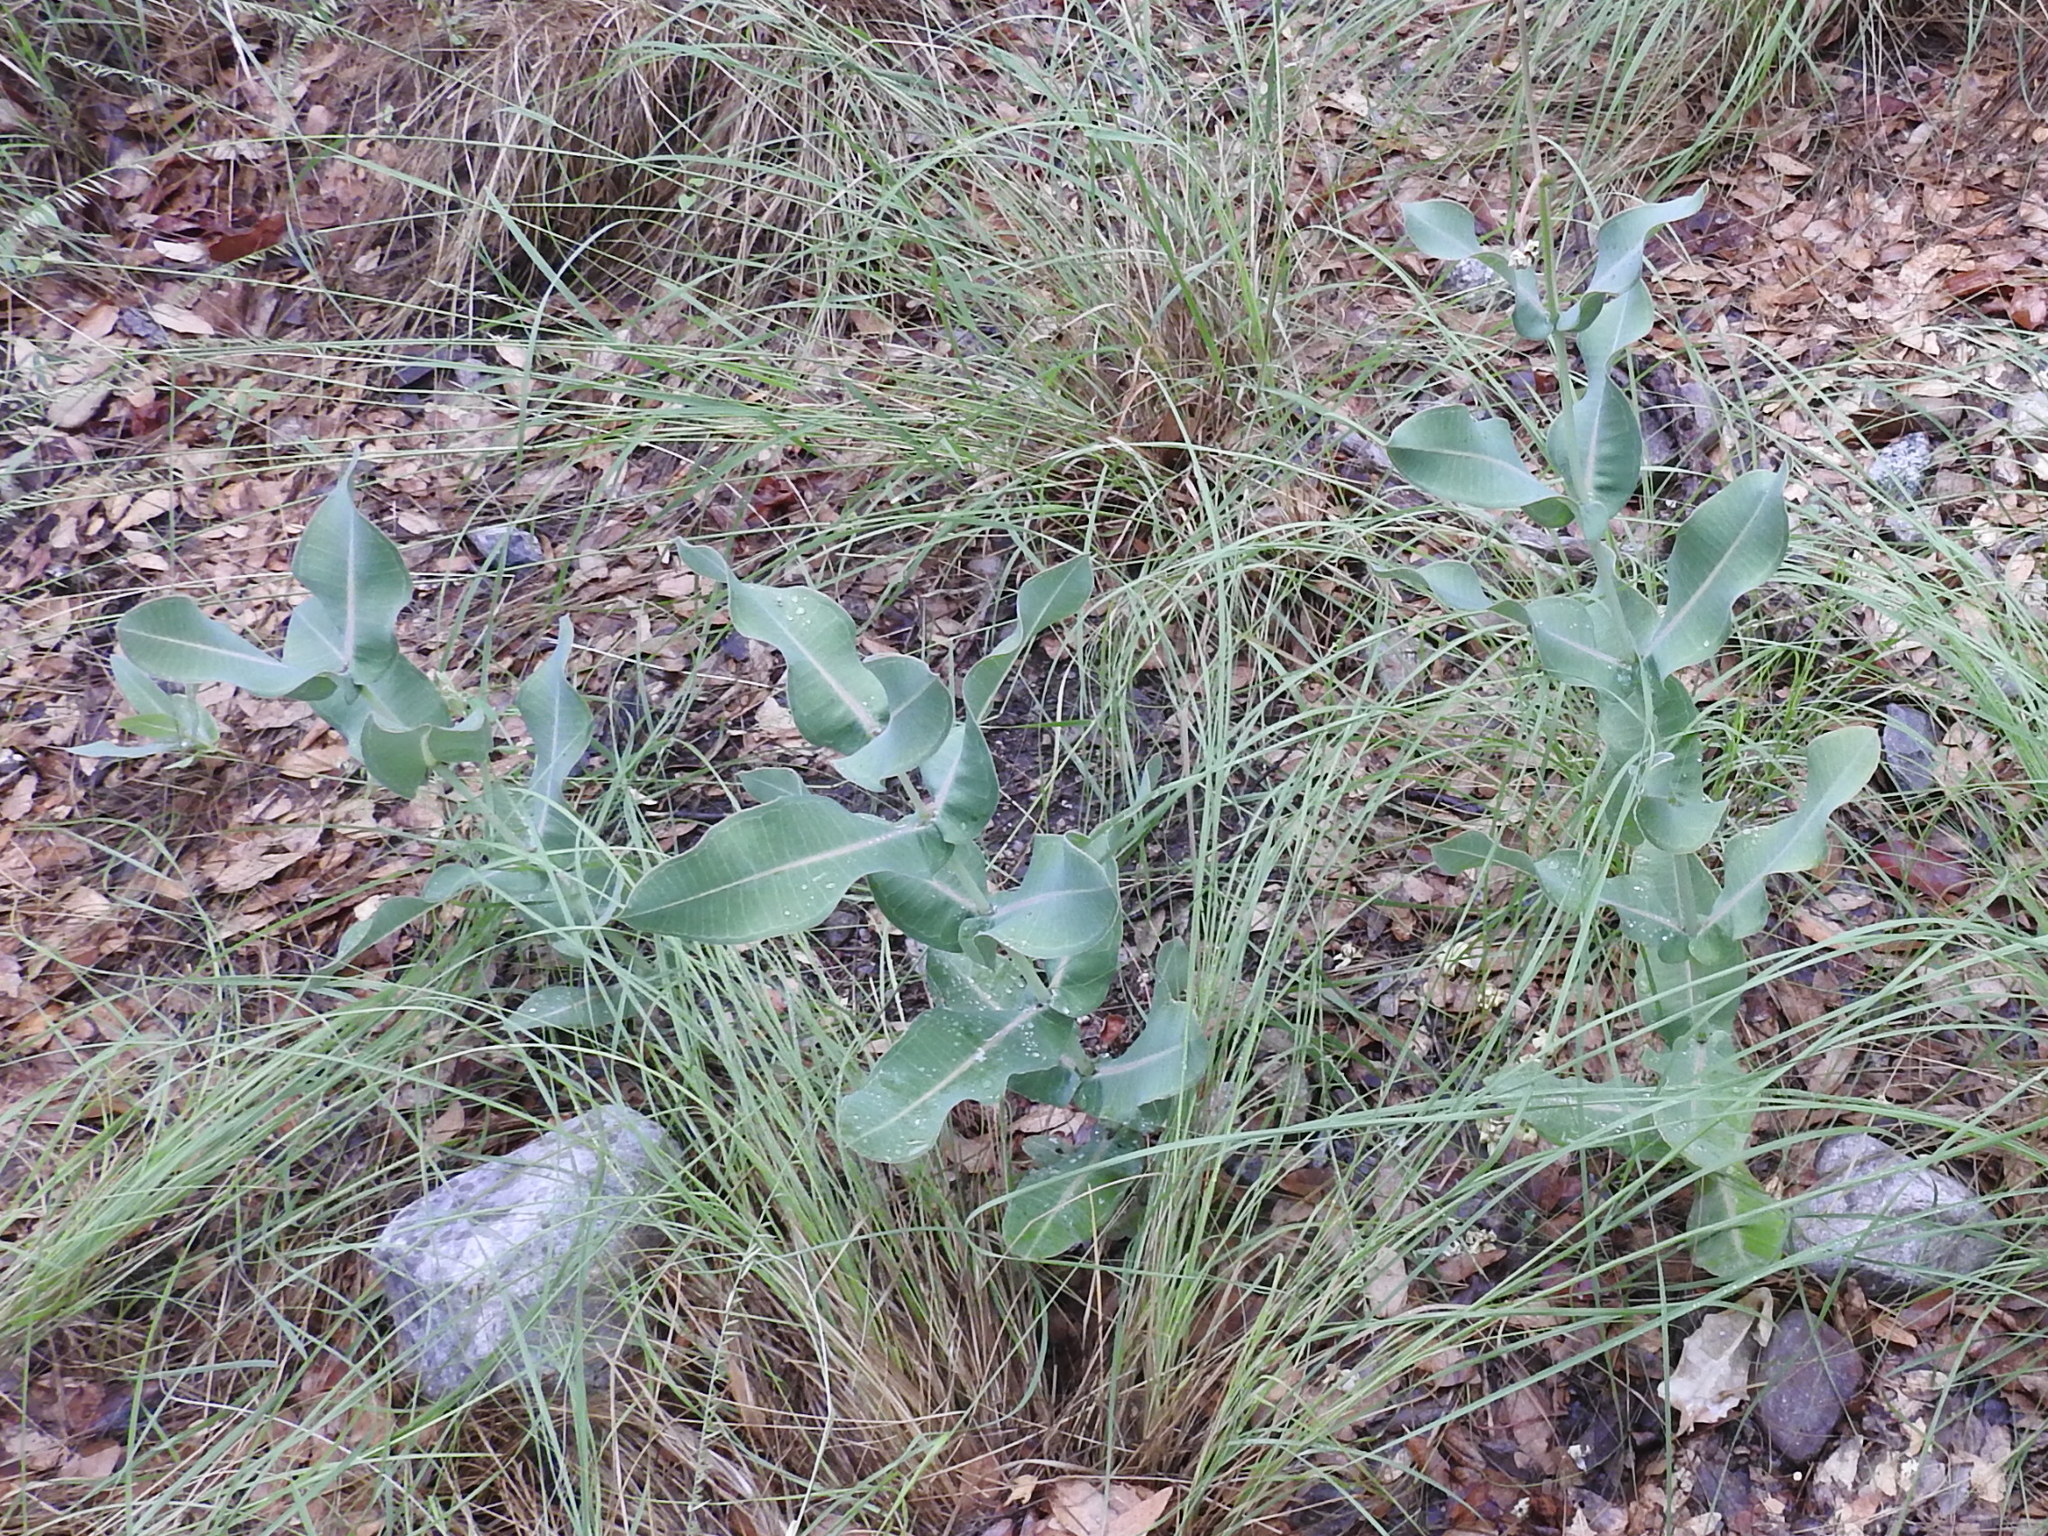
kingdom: Plantae
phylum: Tracheophyta
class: Magnoliopsida
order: Gentianales
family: Apocynaceae
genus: Asclepias
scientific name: Asclepias elata
